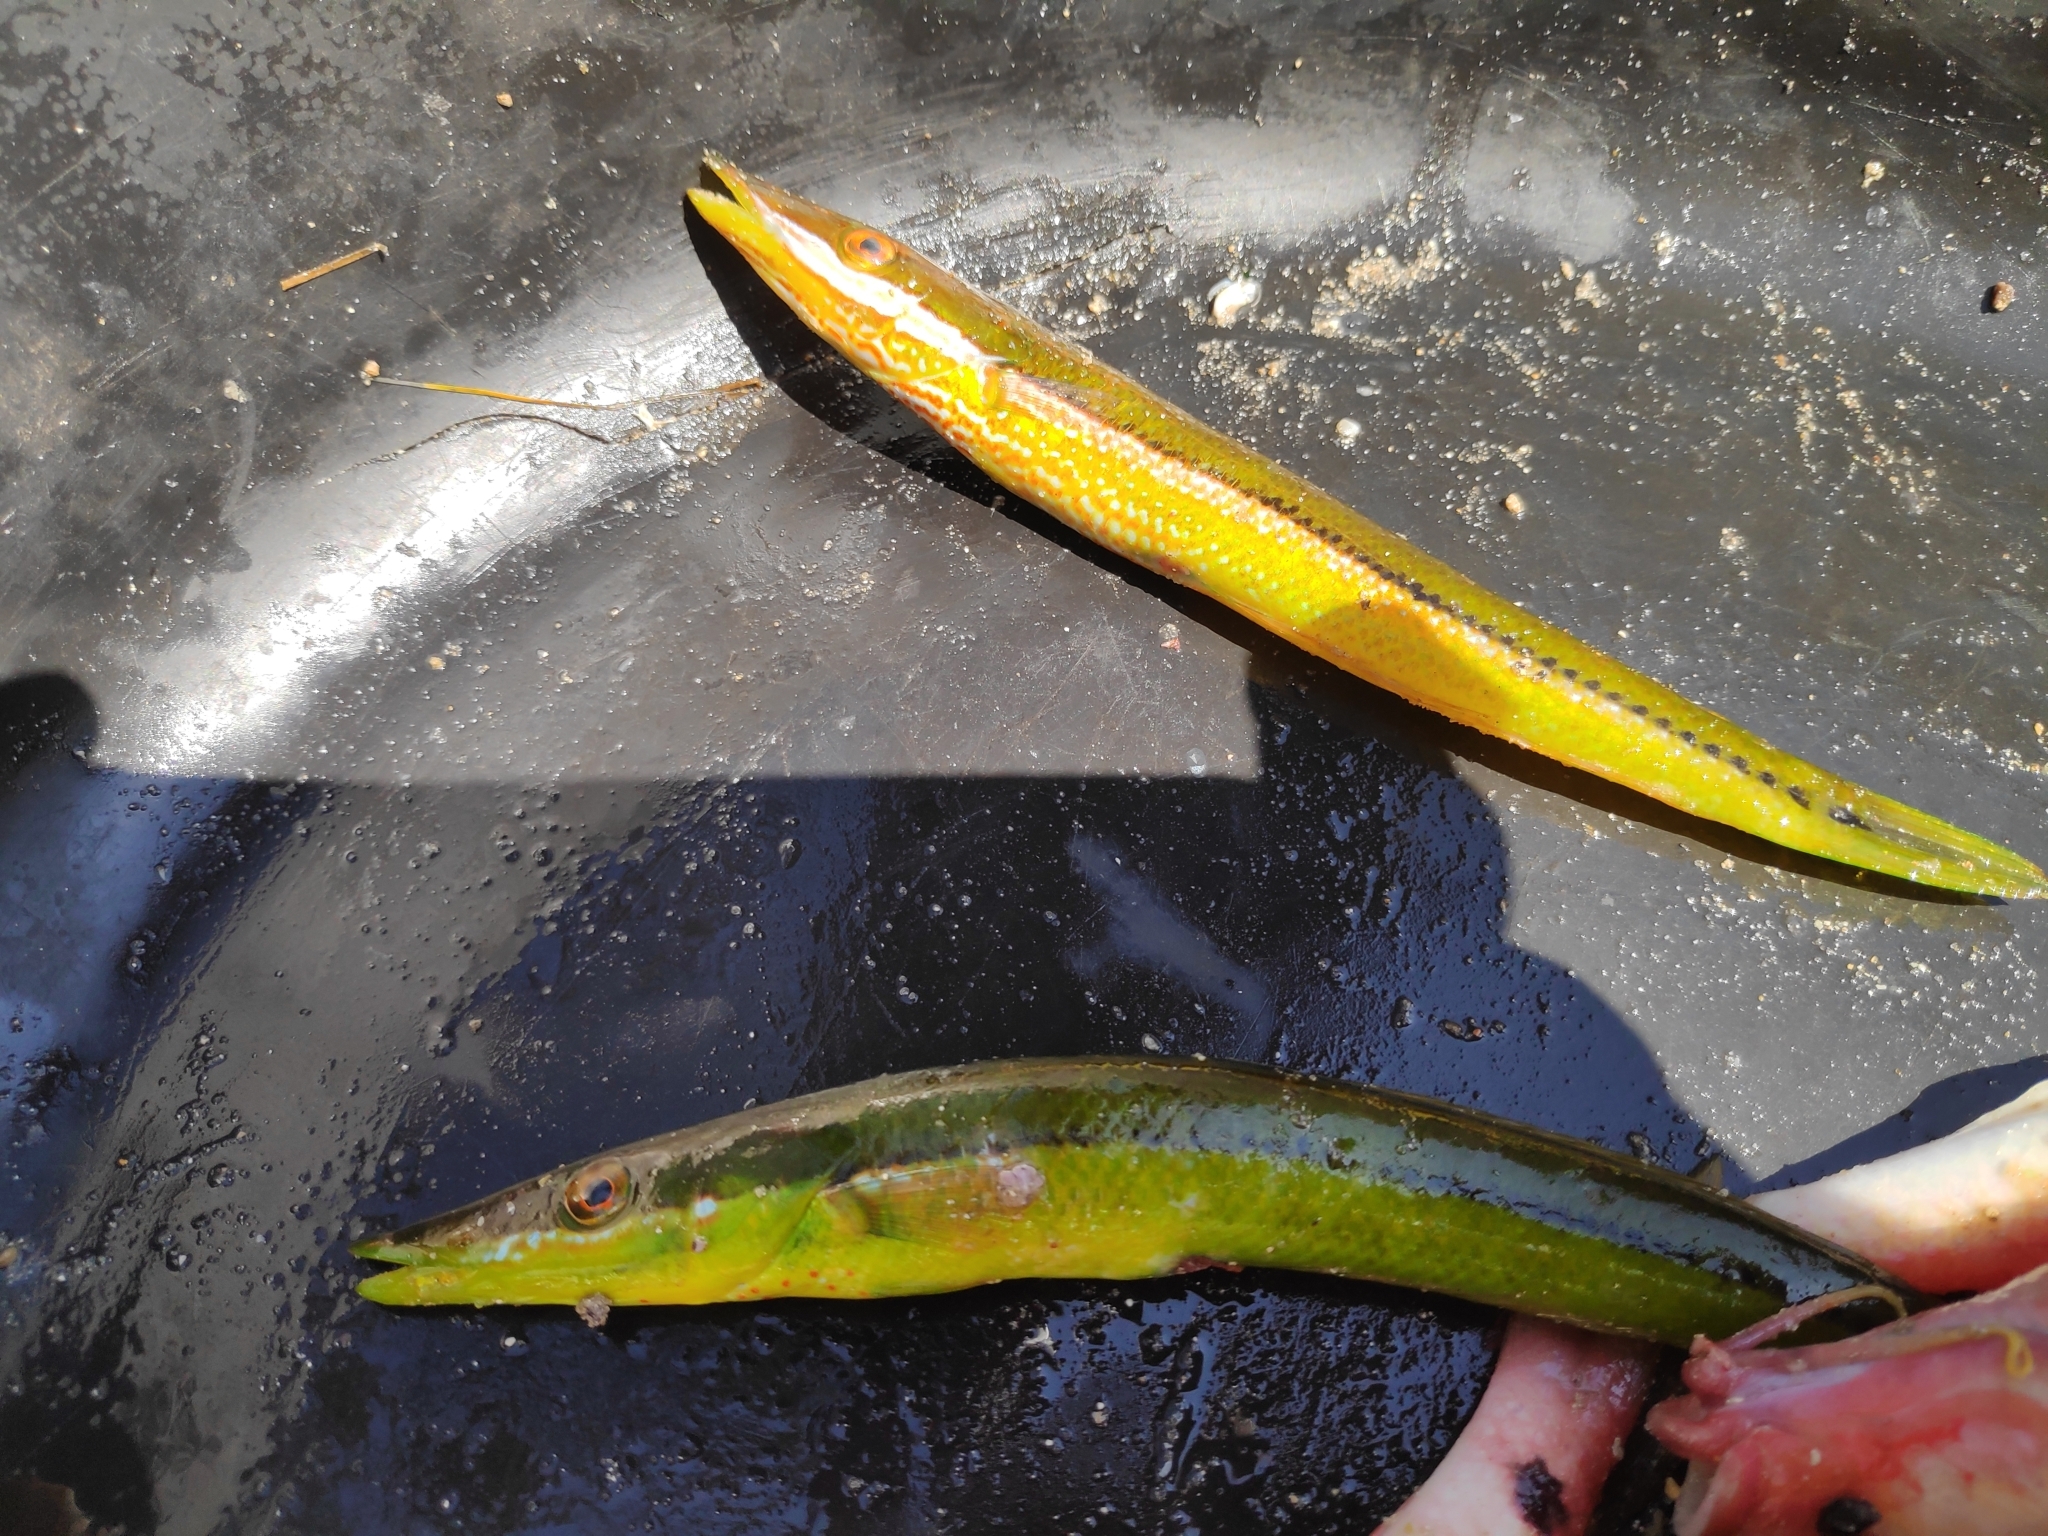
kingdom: Animalia
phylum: Chordata
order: Perciformes
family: Labridae
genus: Cheilio
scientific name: Cheilio inermis
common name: Cigar wrasse
